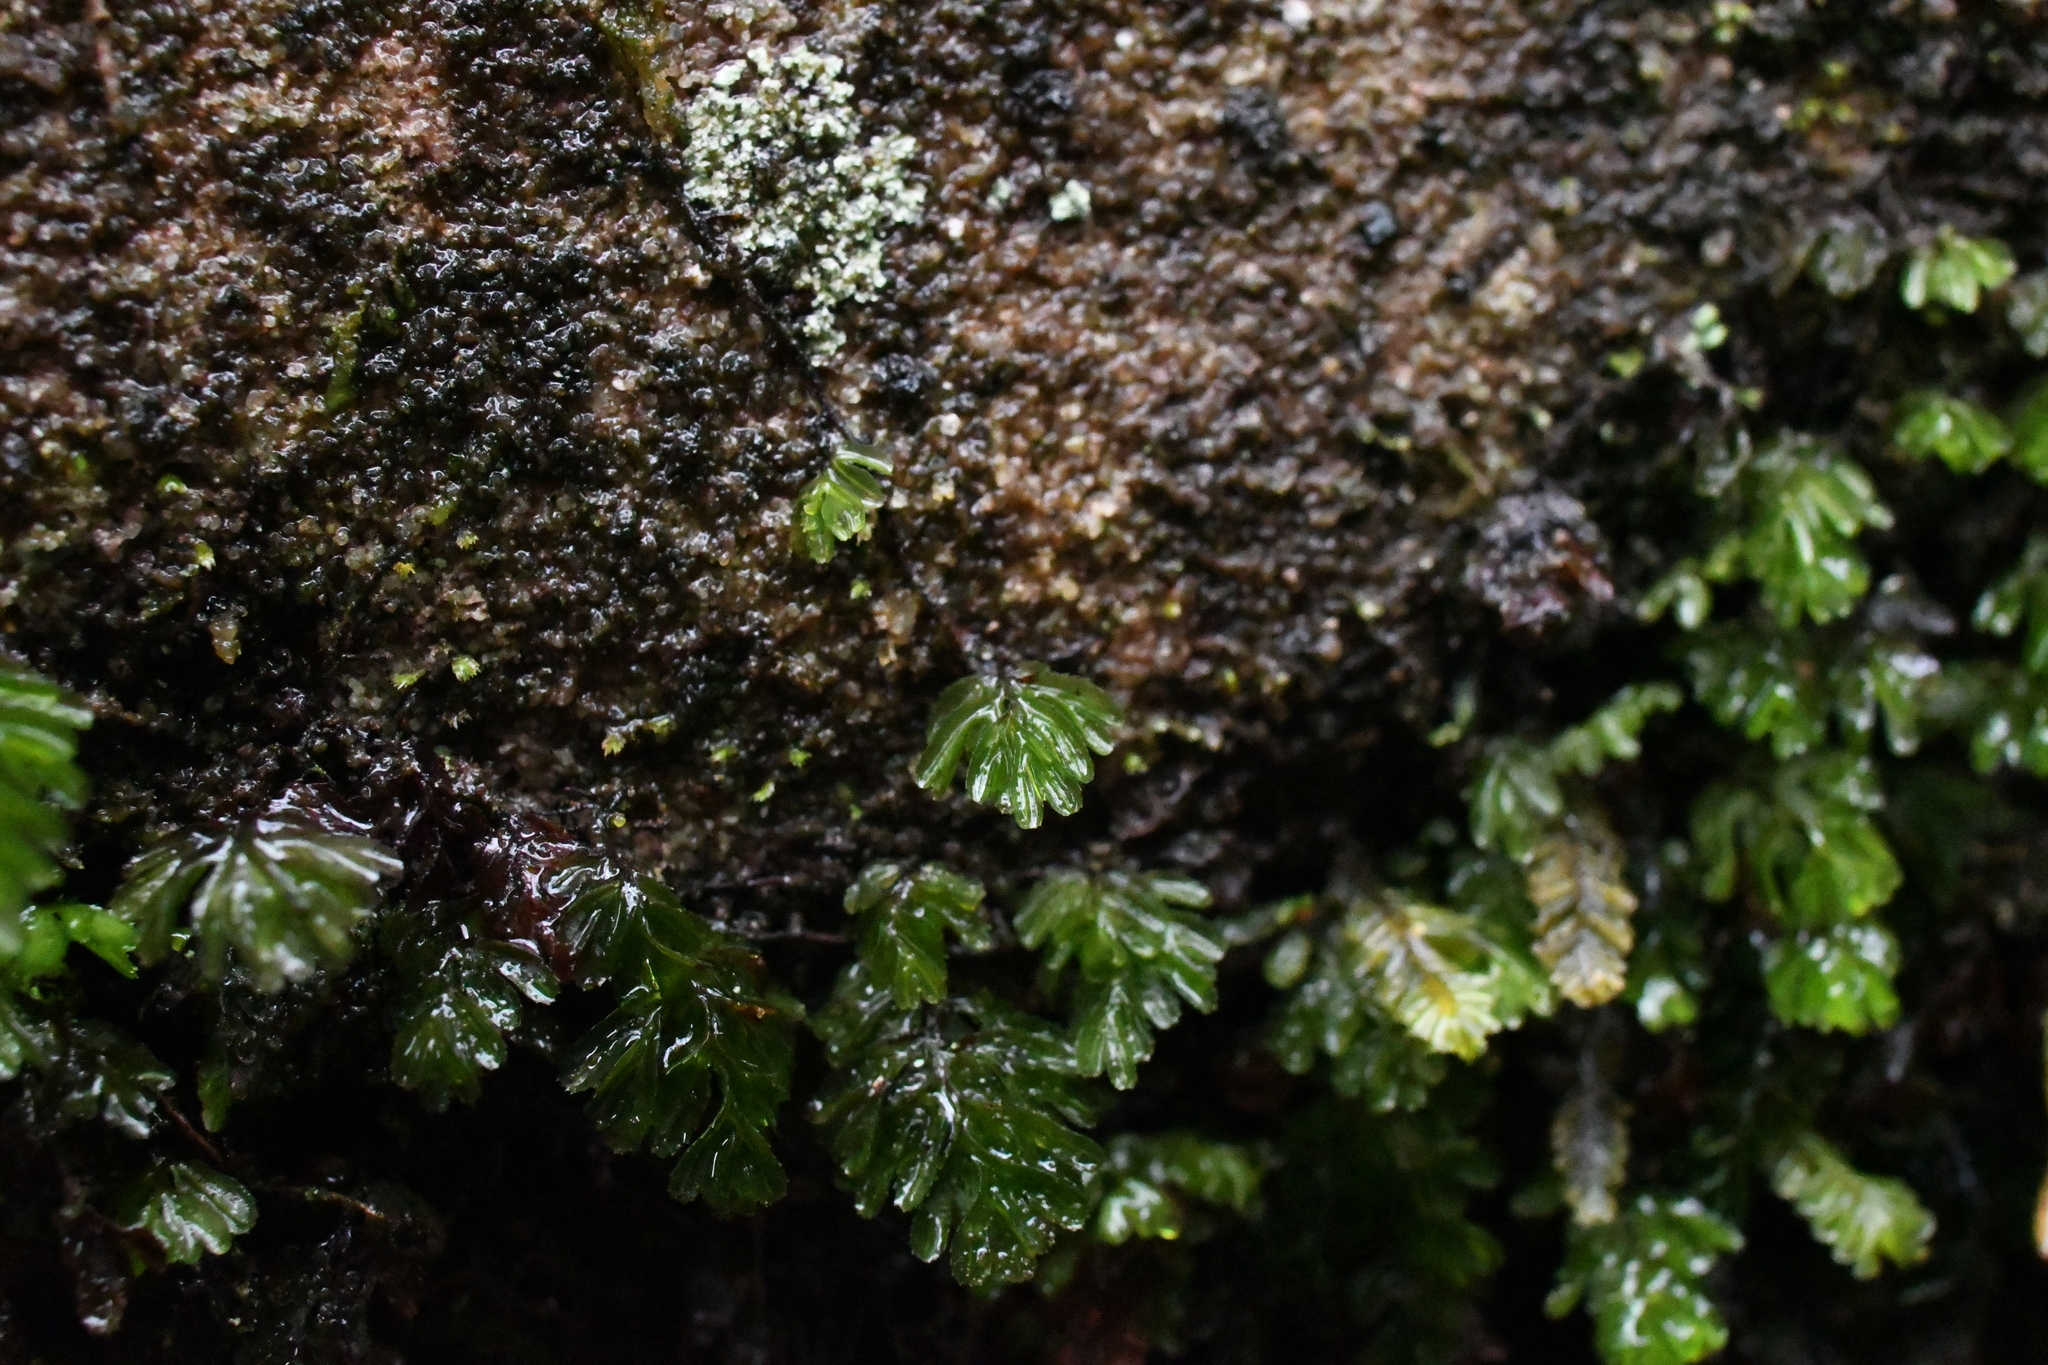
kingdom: Plantae
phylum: Tracheophyta
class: Polypodiopsida
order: Hymenophyllales
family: Hymenophyllaceae
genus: Hymenophyllum
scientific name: Hymenophyllum cupressiforme
